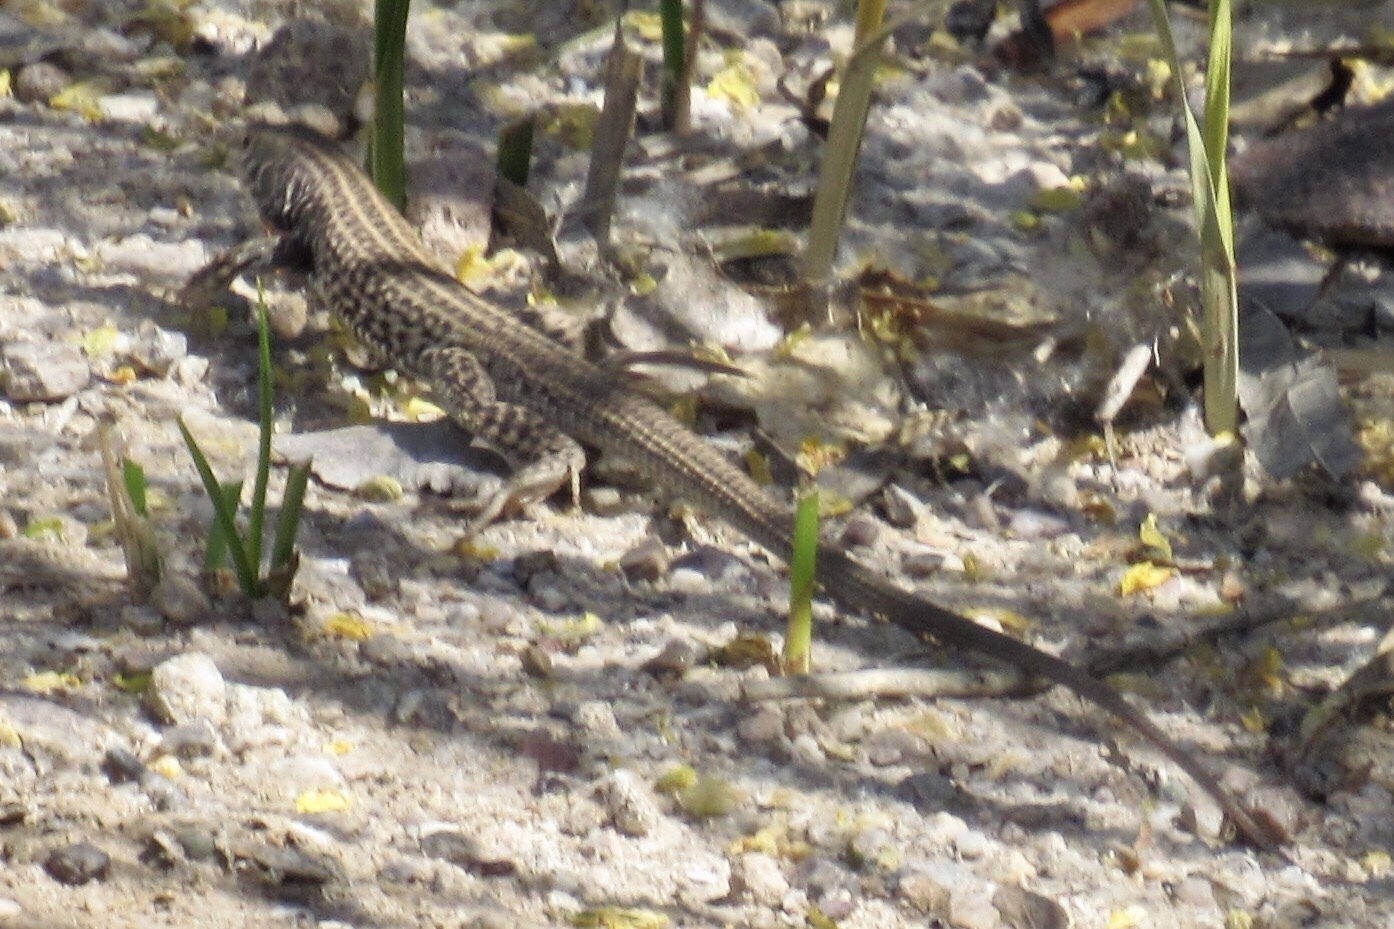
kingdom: Animalia
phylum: Chordata
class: Squamata
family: Teiidae
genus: Aspidoscelis
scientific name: Aspidoscelis tigris
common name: Tiger whiptail
